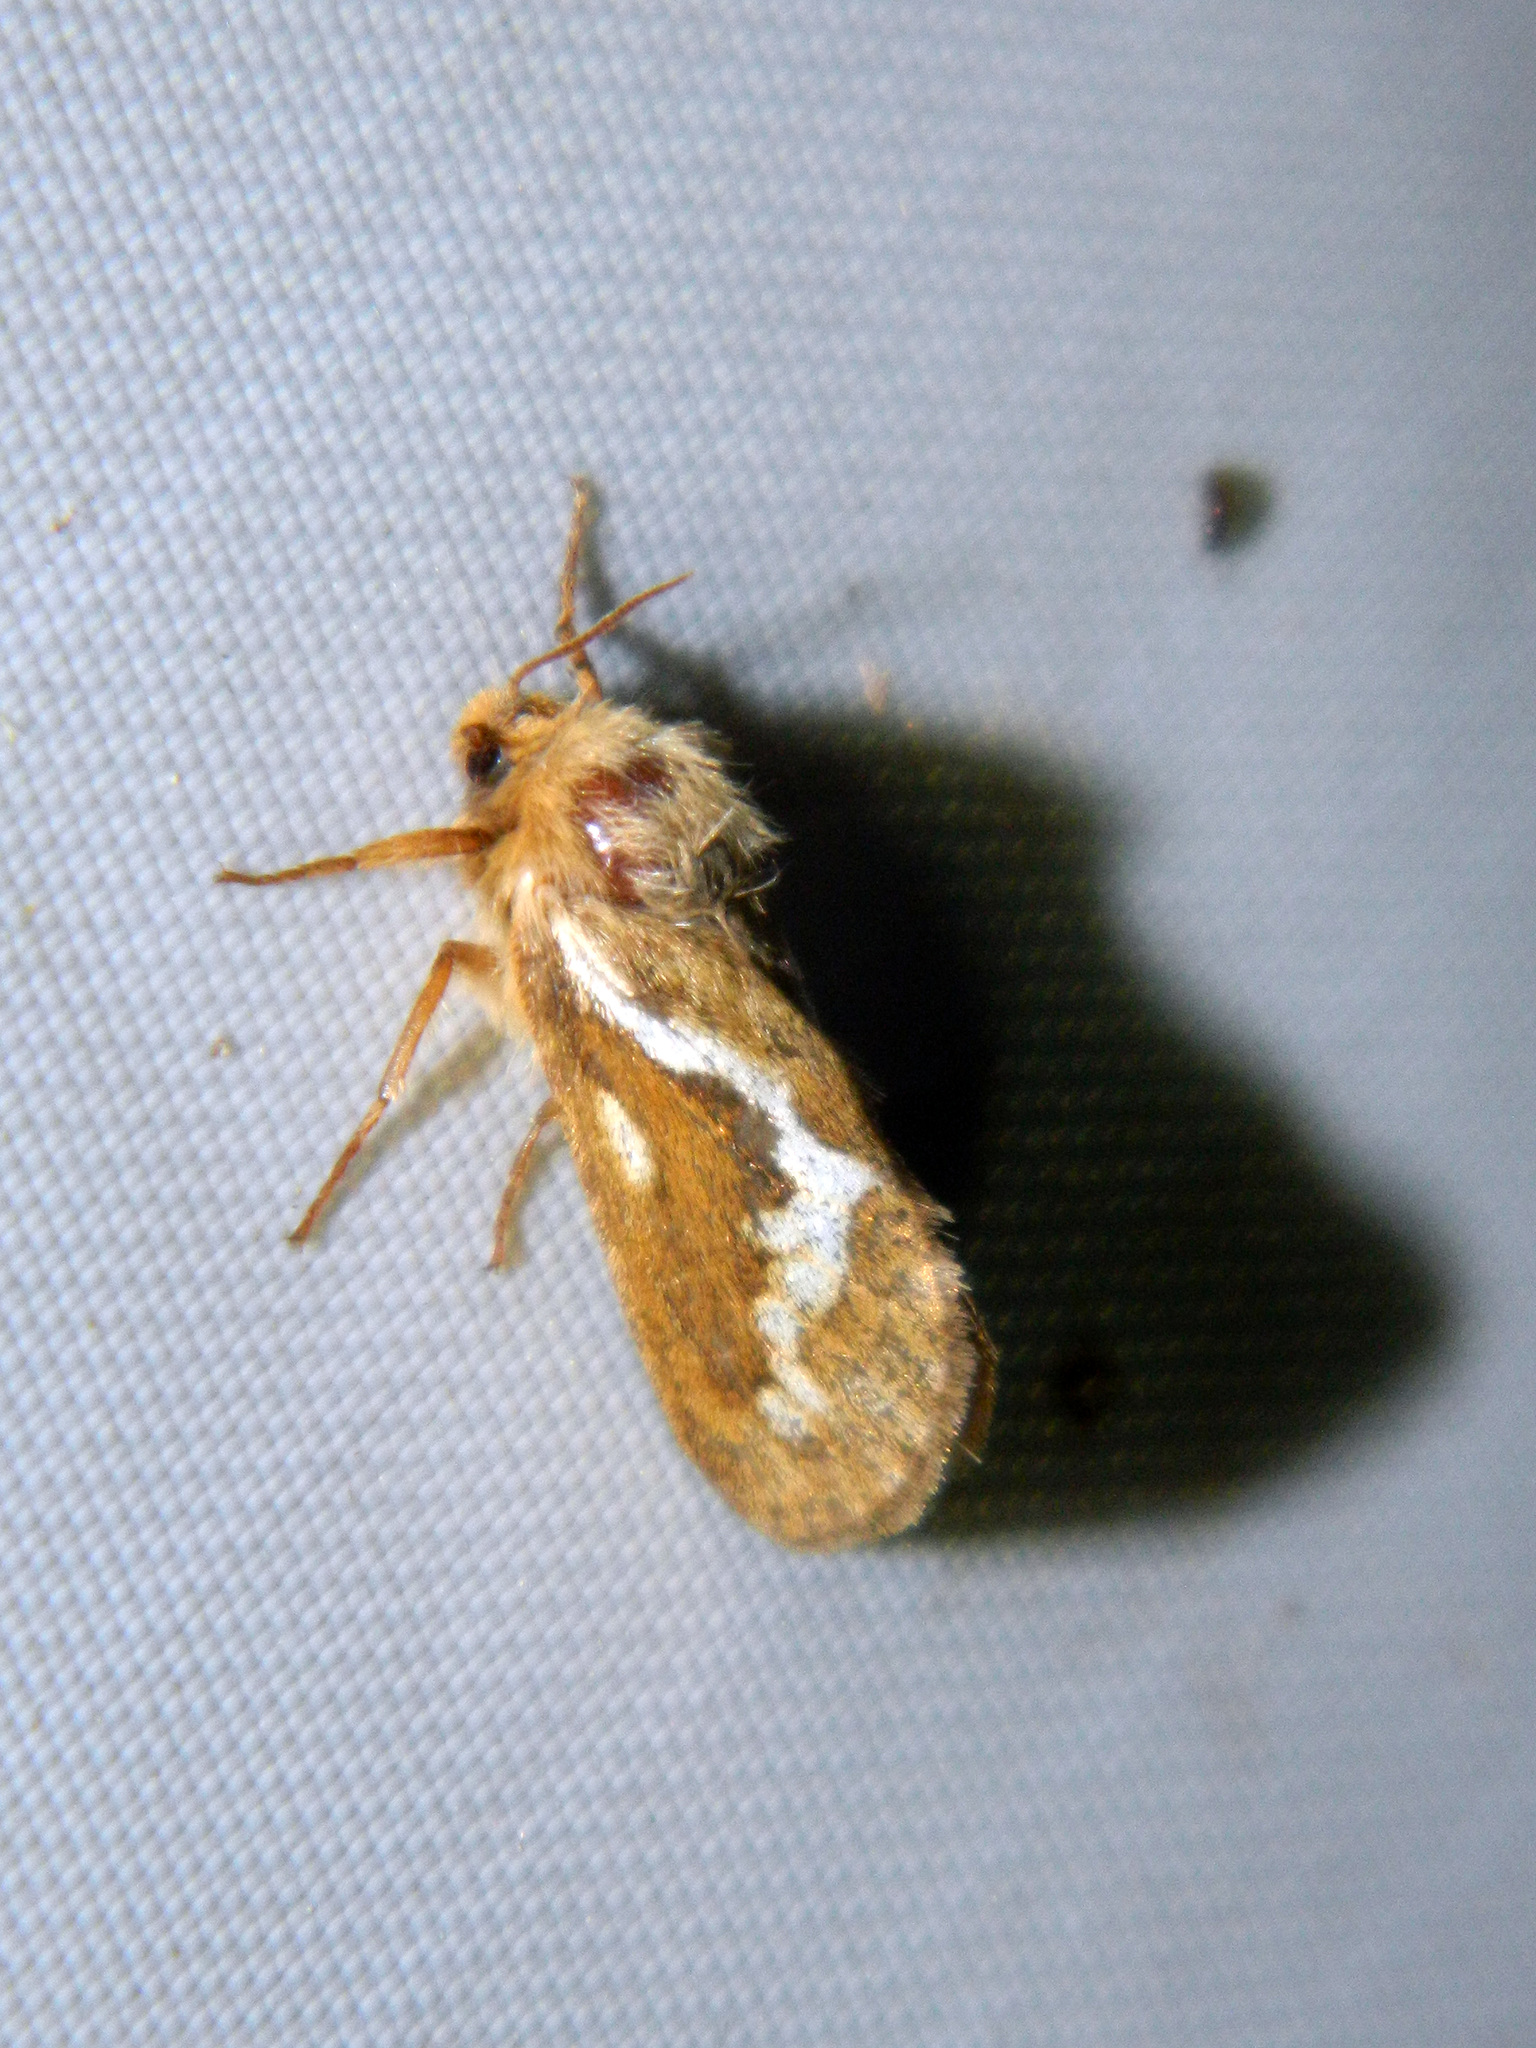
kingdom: Animalia
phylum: Arthropoda
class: Insecta
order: Lepidoptera
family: Hepialidae
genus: Korscheltellus
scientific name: Korscheltellus lupulina
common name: Common swift
